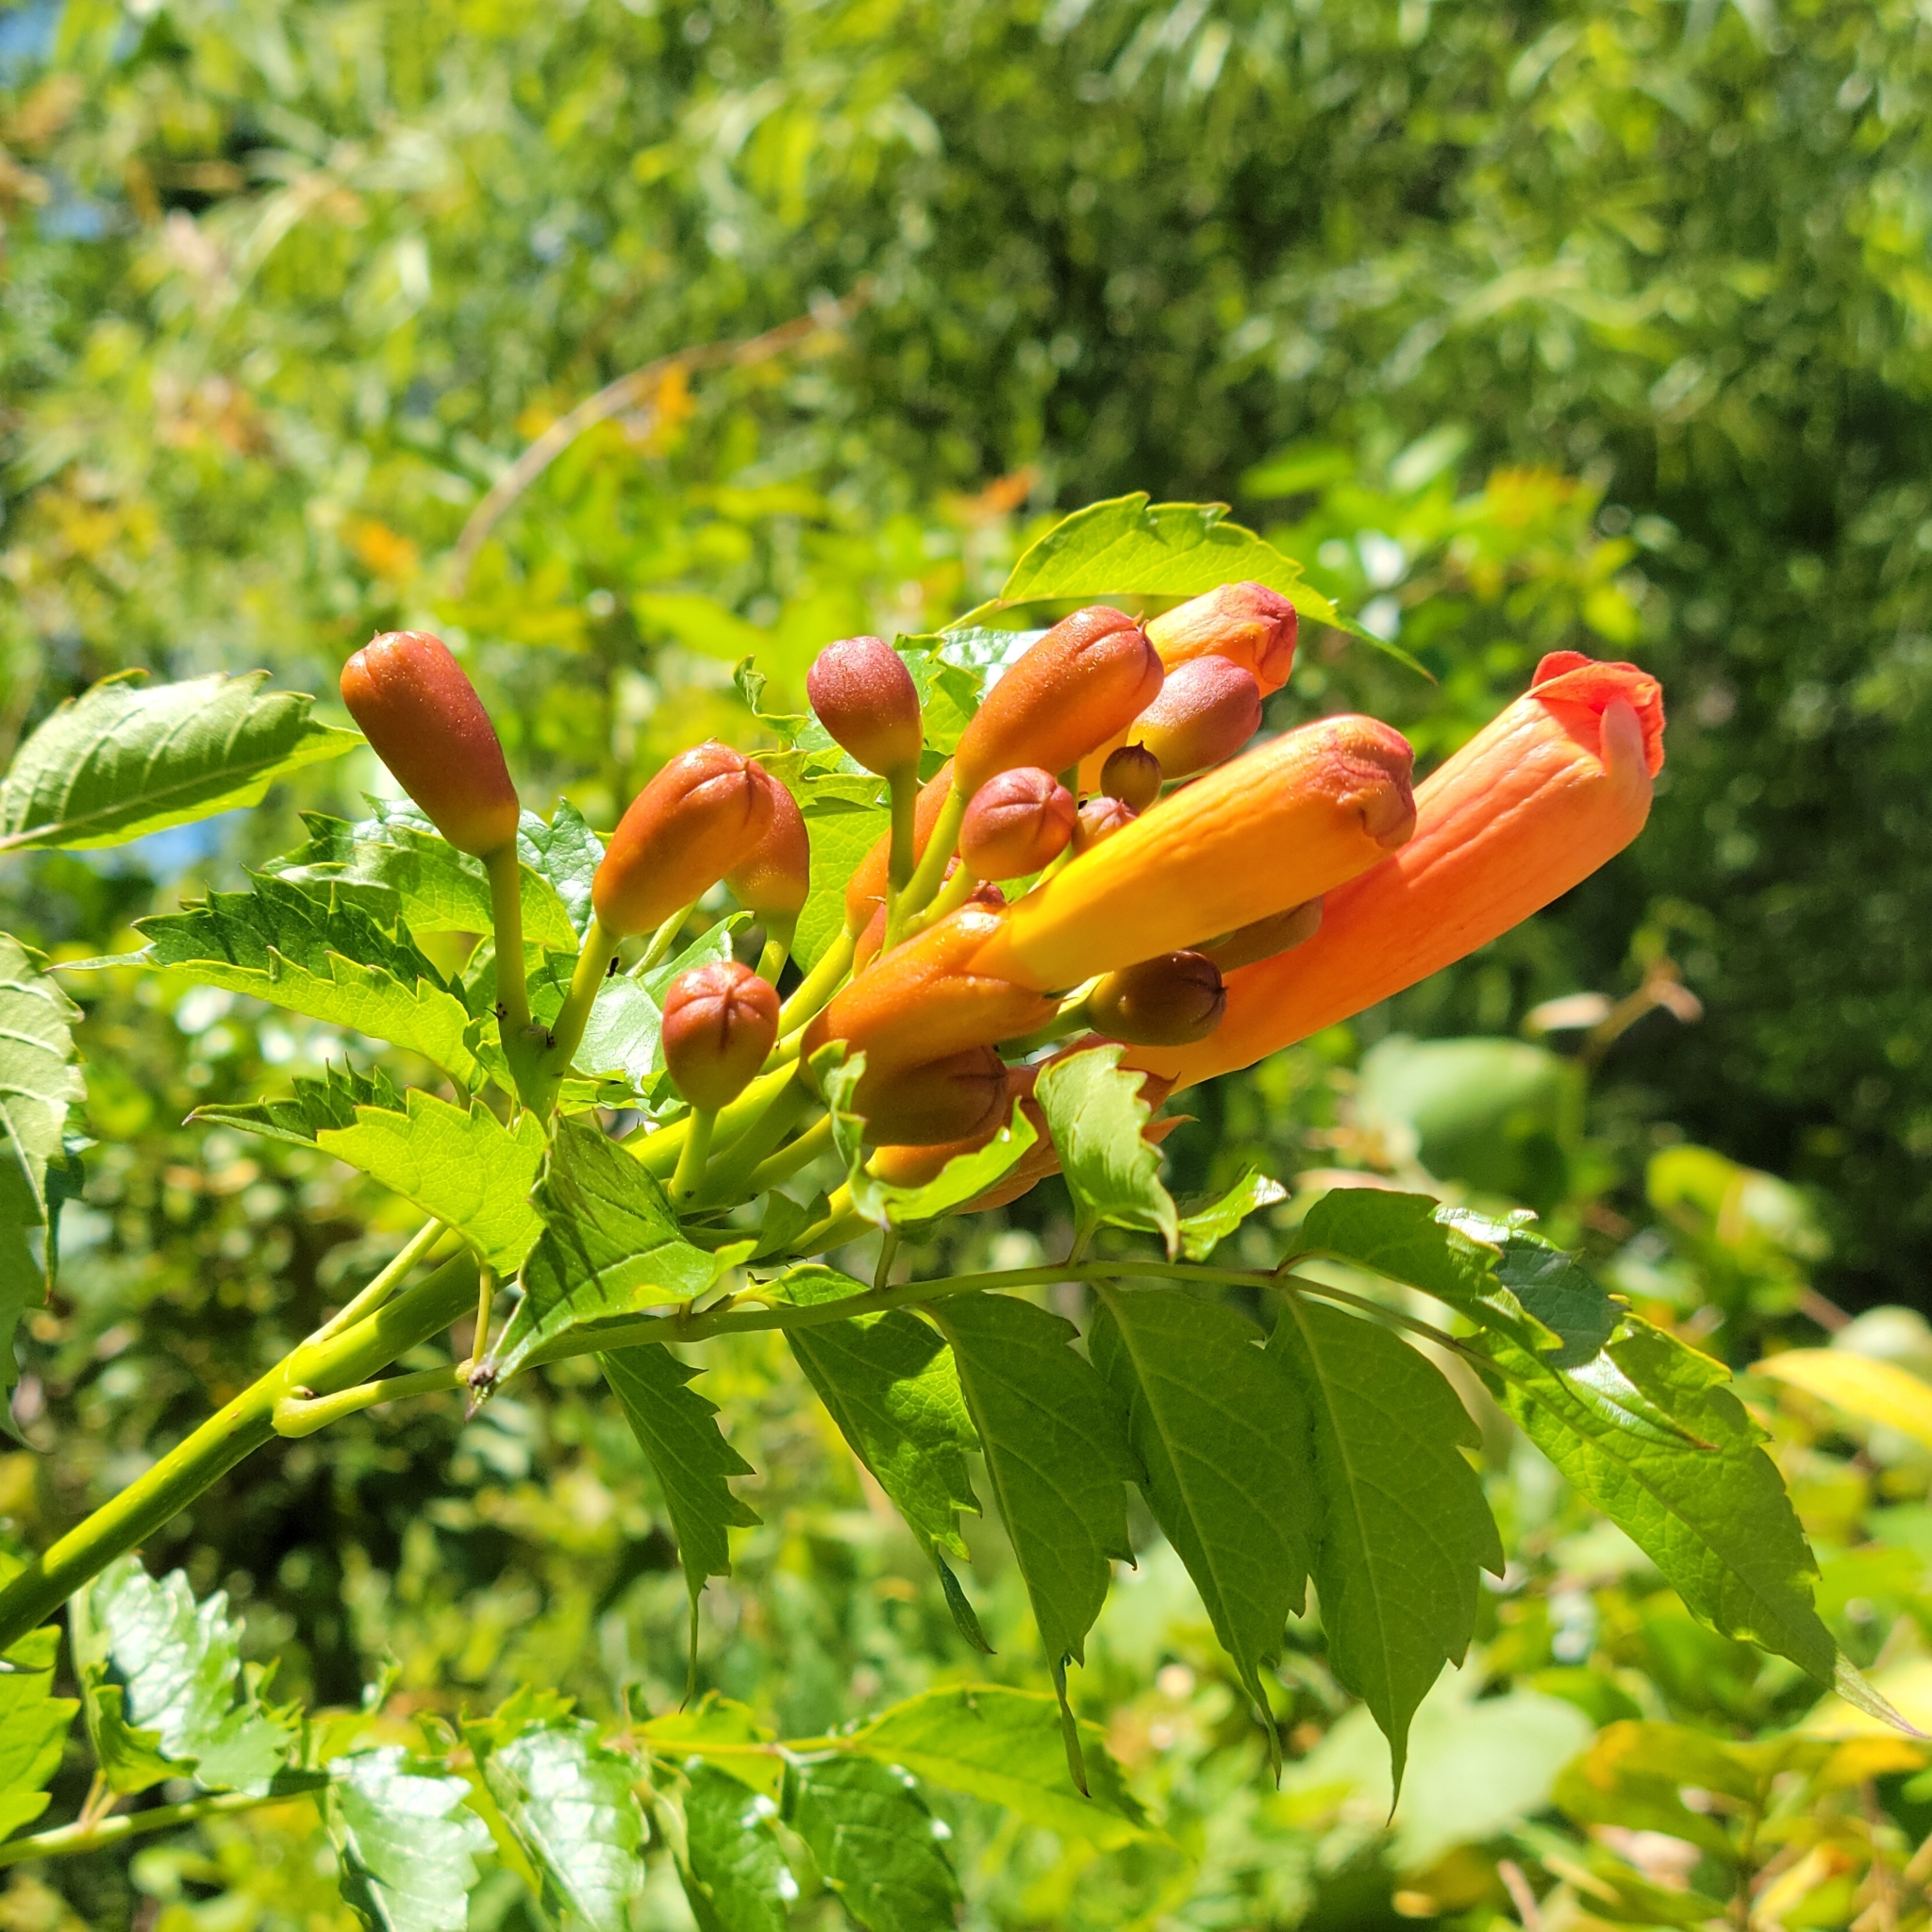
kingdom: Plantae
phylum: Tracheophyta
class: Magnoliopsida
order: Lamiales
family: Bignoniaceae
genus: Campsis
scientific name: Campsis radicans
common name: Trumpet-creeper
